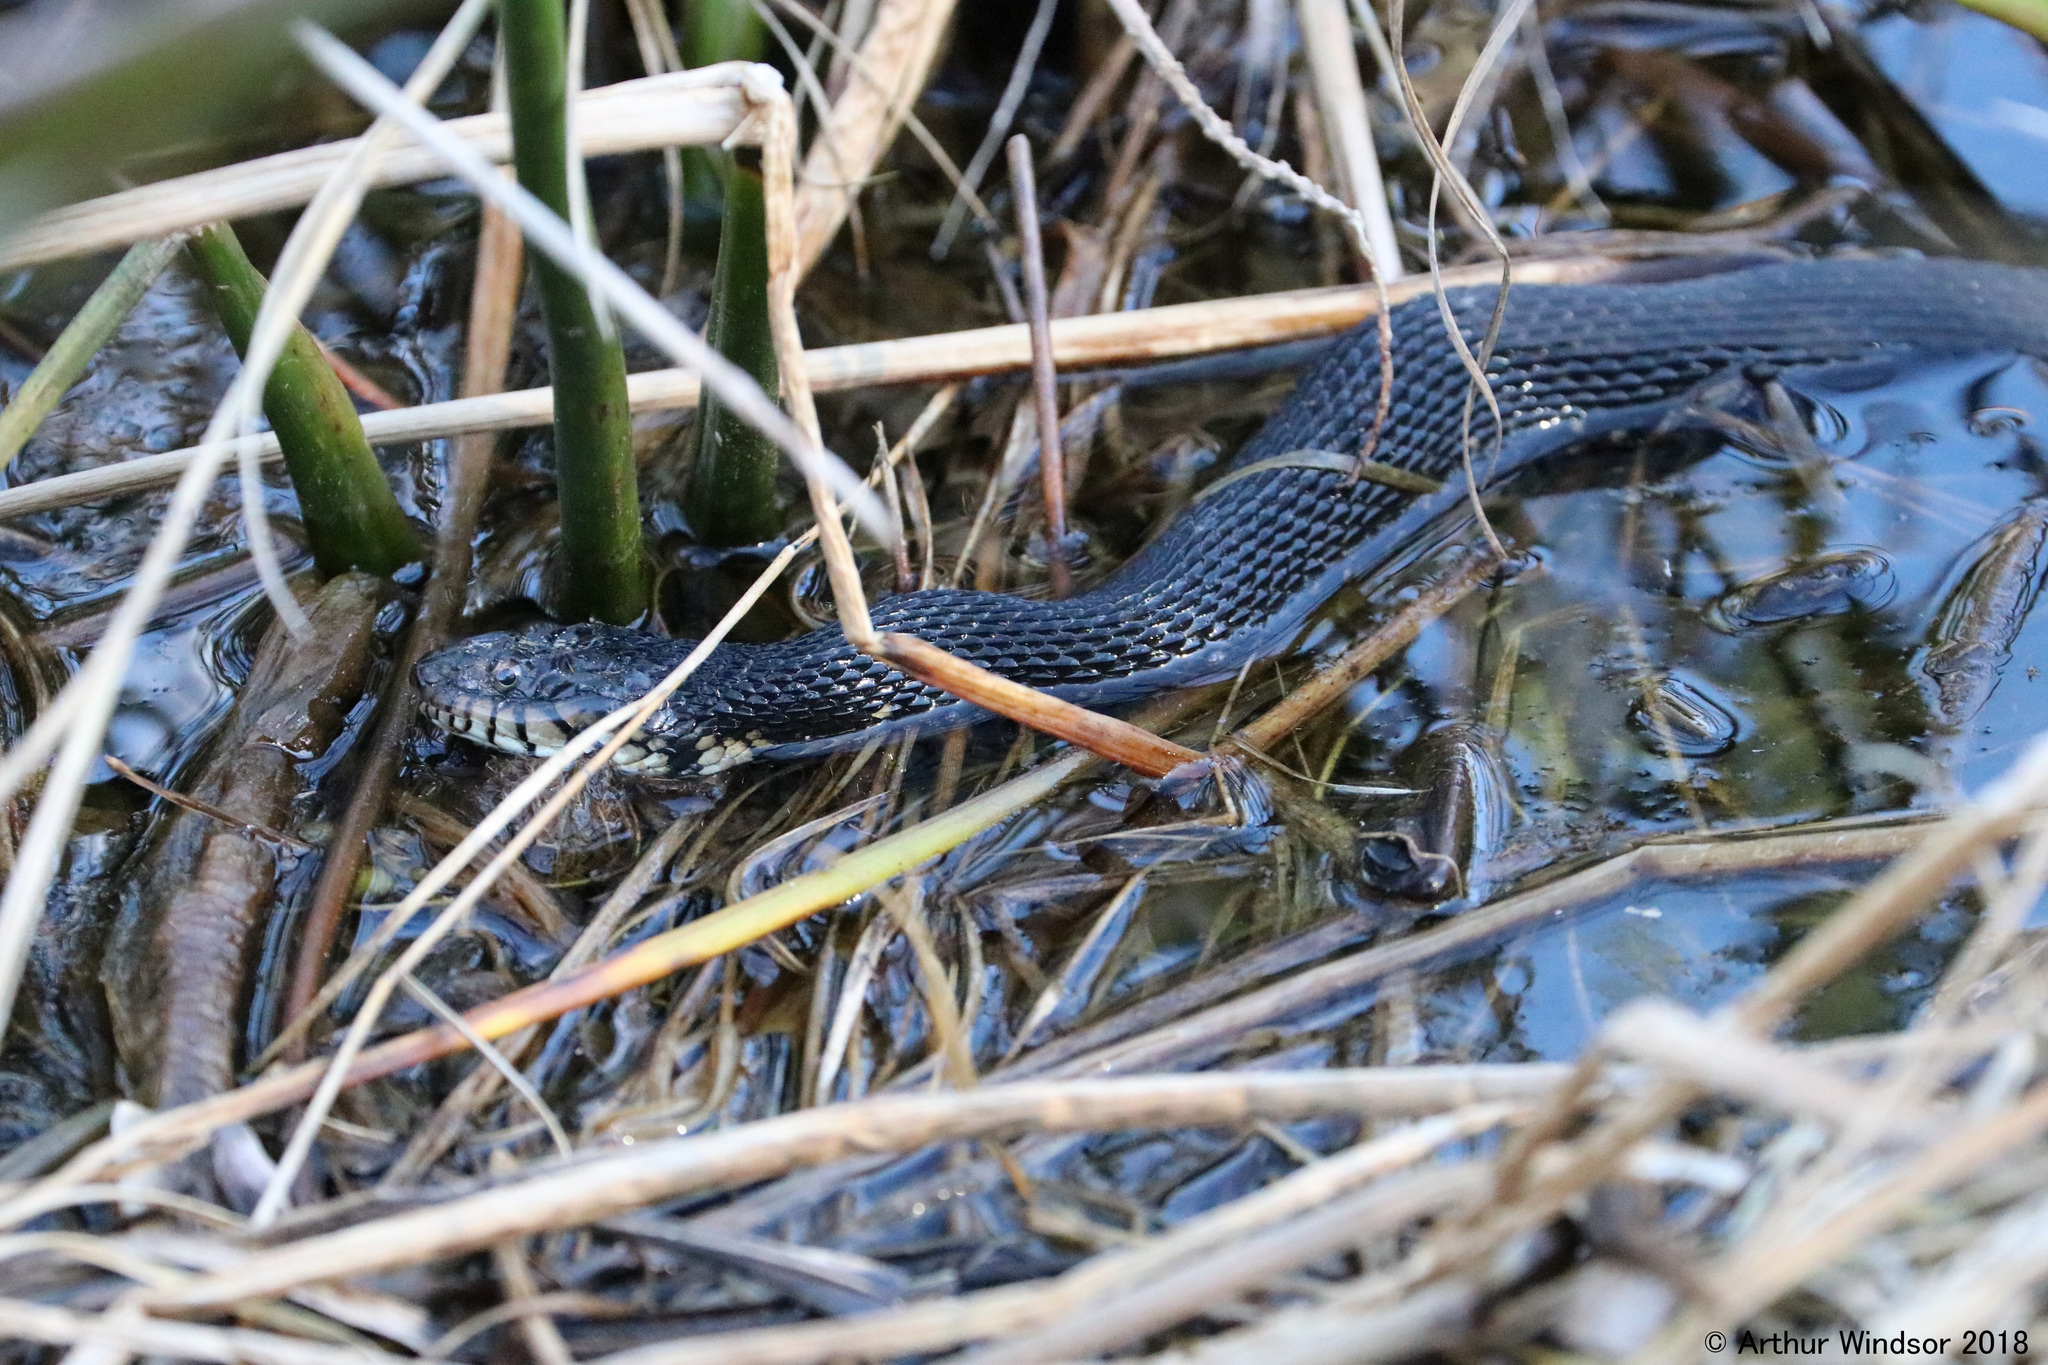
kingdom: Animalia
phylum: Chordata
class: Squamata
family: Colubridae
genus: Nerodia
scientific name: Nerodia fasciata
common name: Southern water snake
